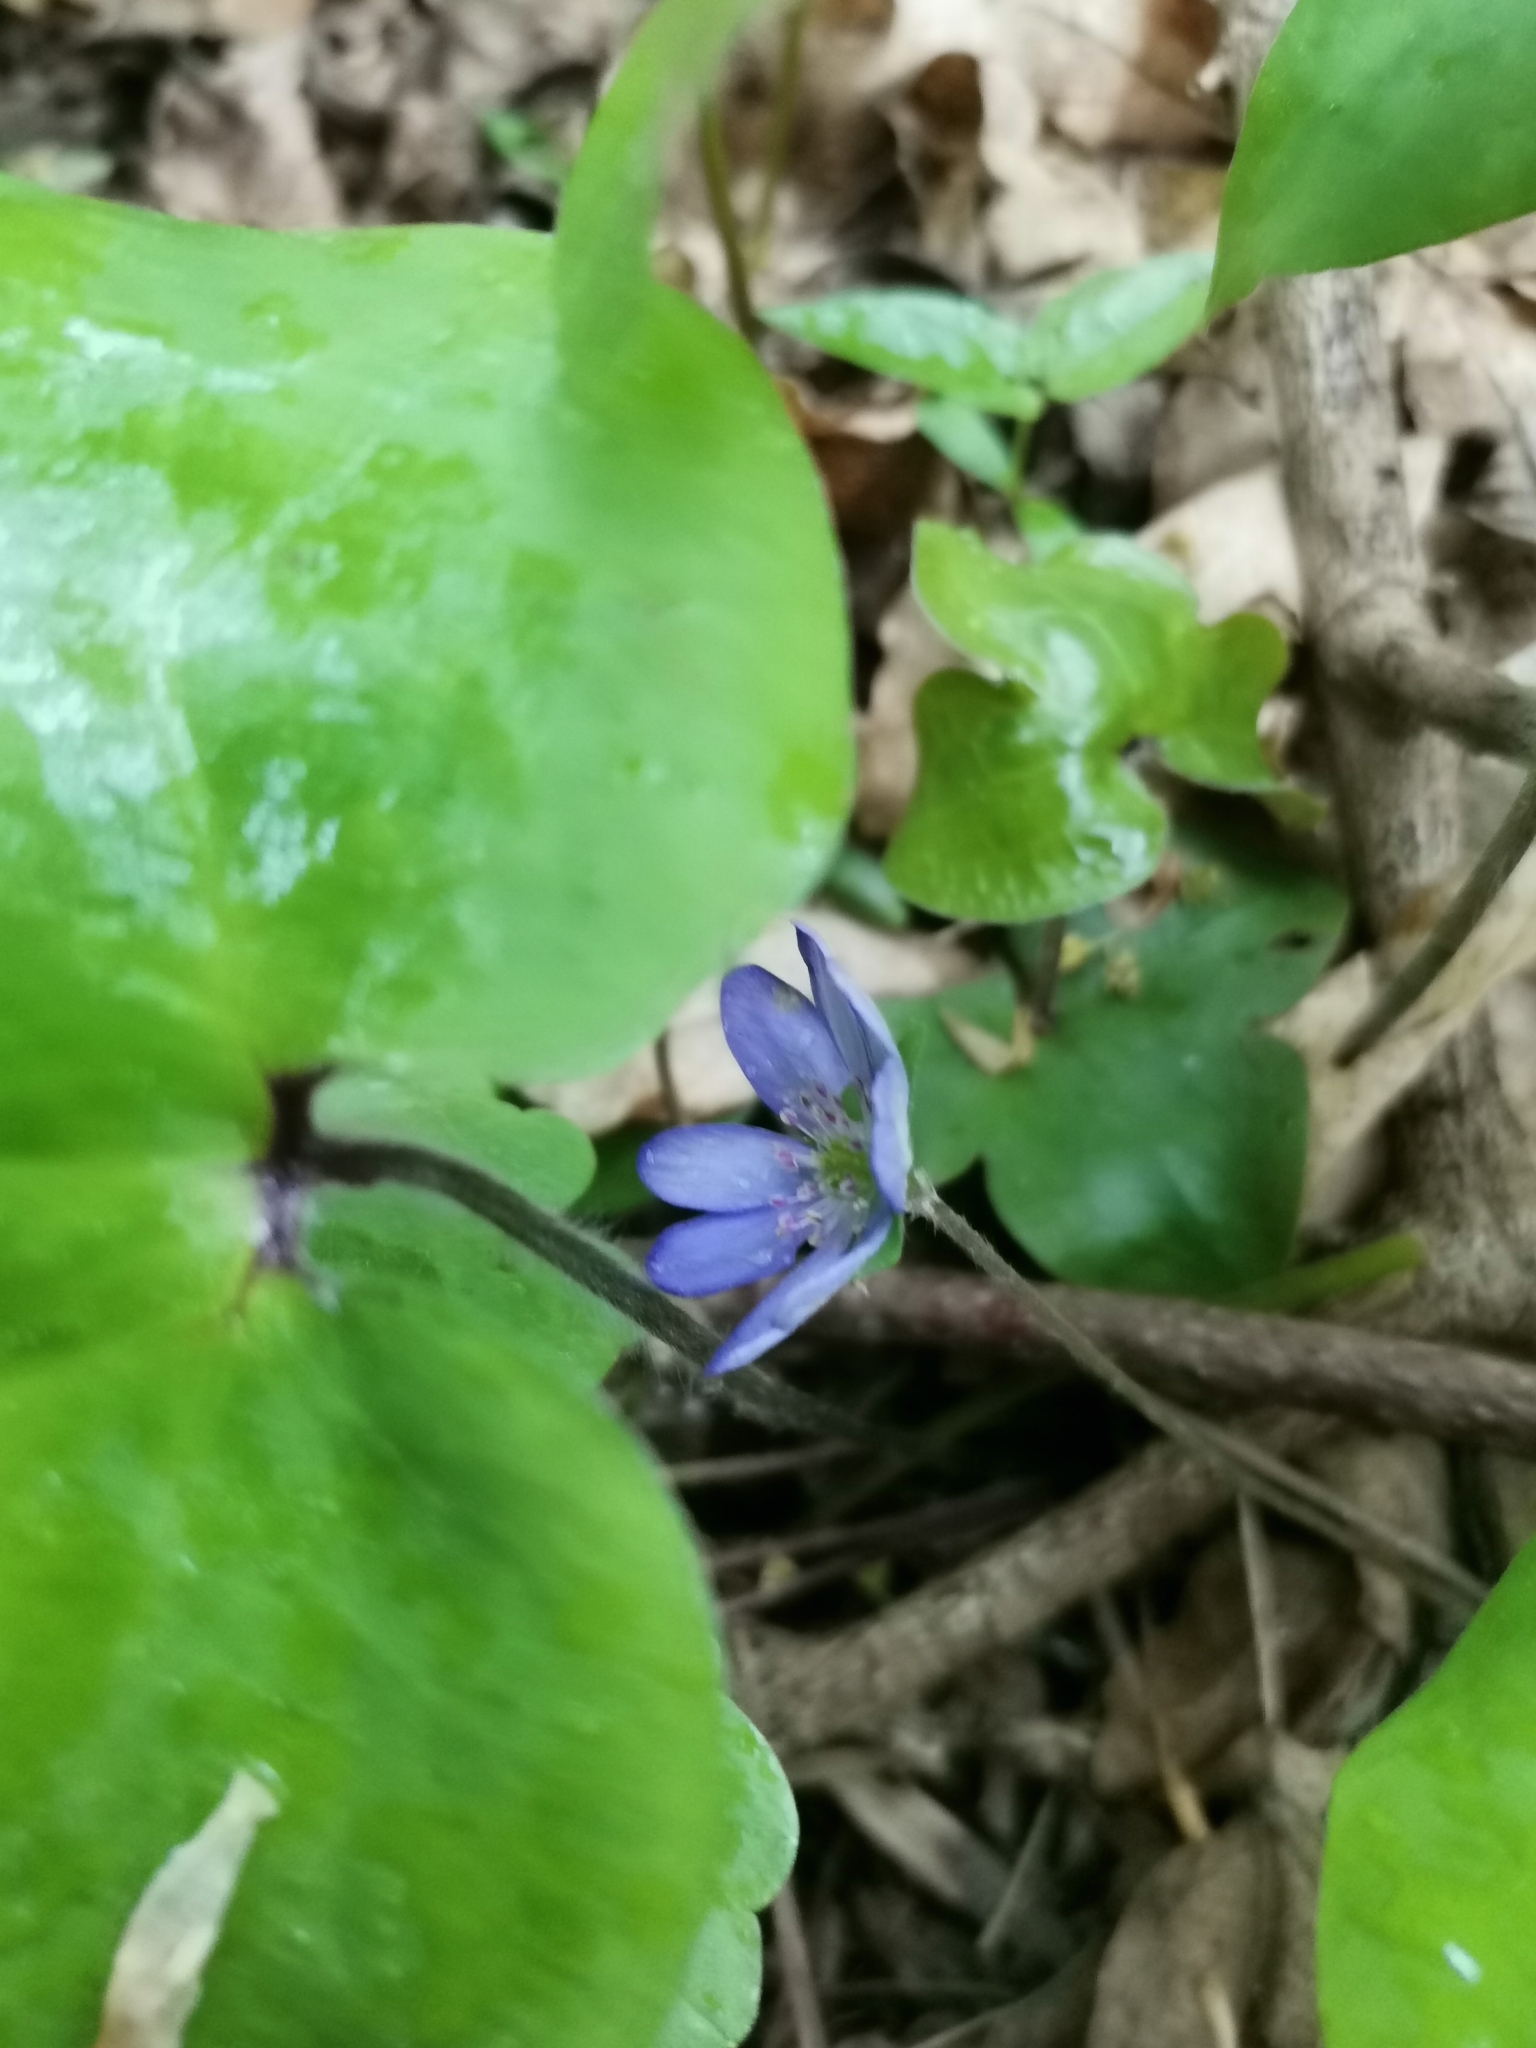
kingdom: Plantae
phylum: Tracheophyta
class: Magnoliopsida
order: Ranunculales
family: Ranunculaceae
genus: Hepatica
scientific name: Hepatica nobilis
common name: Liverleaf
